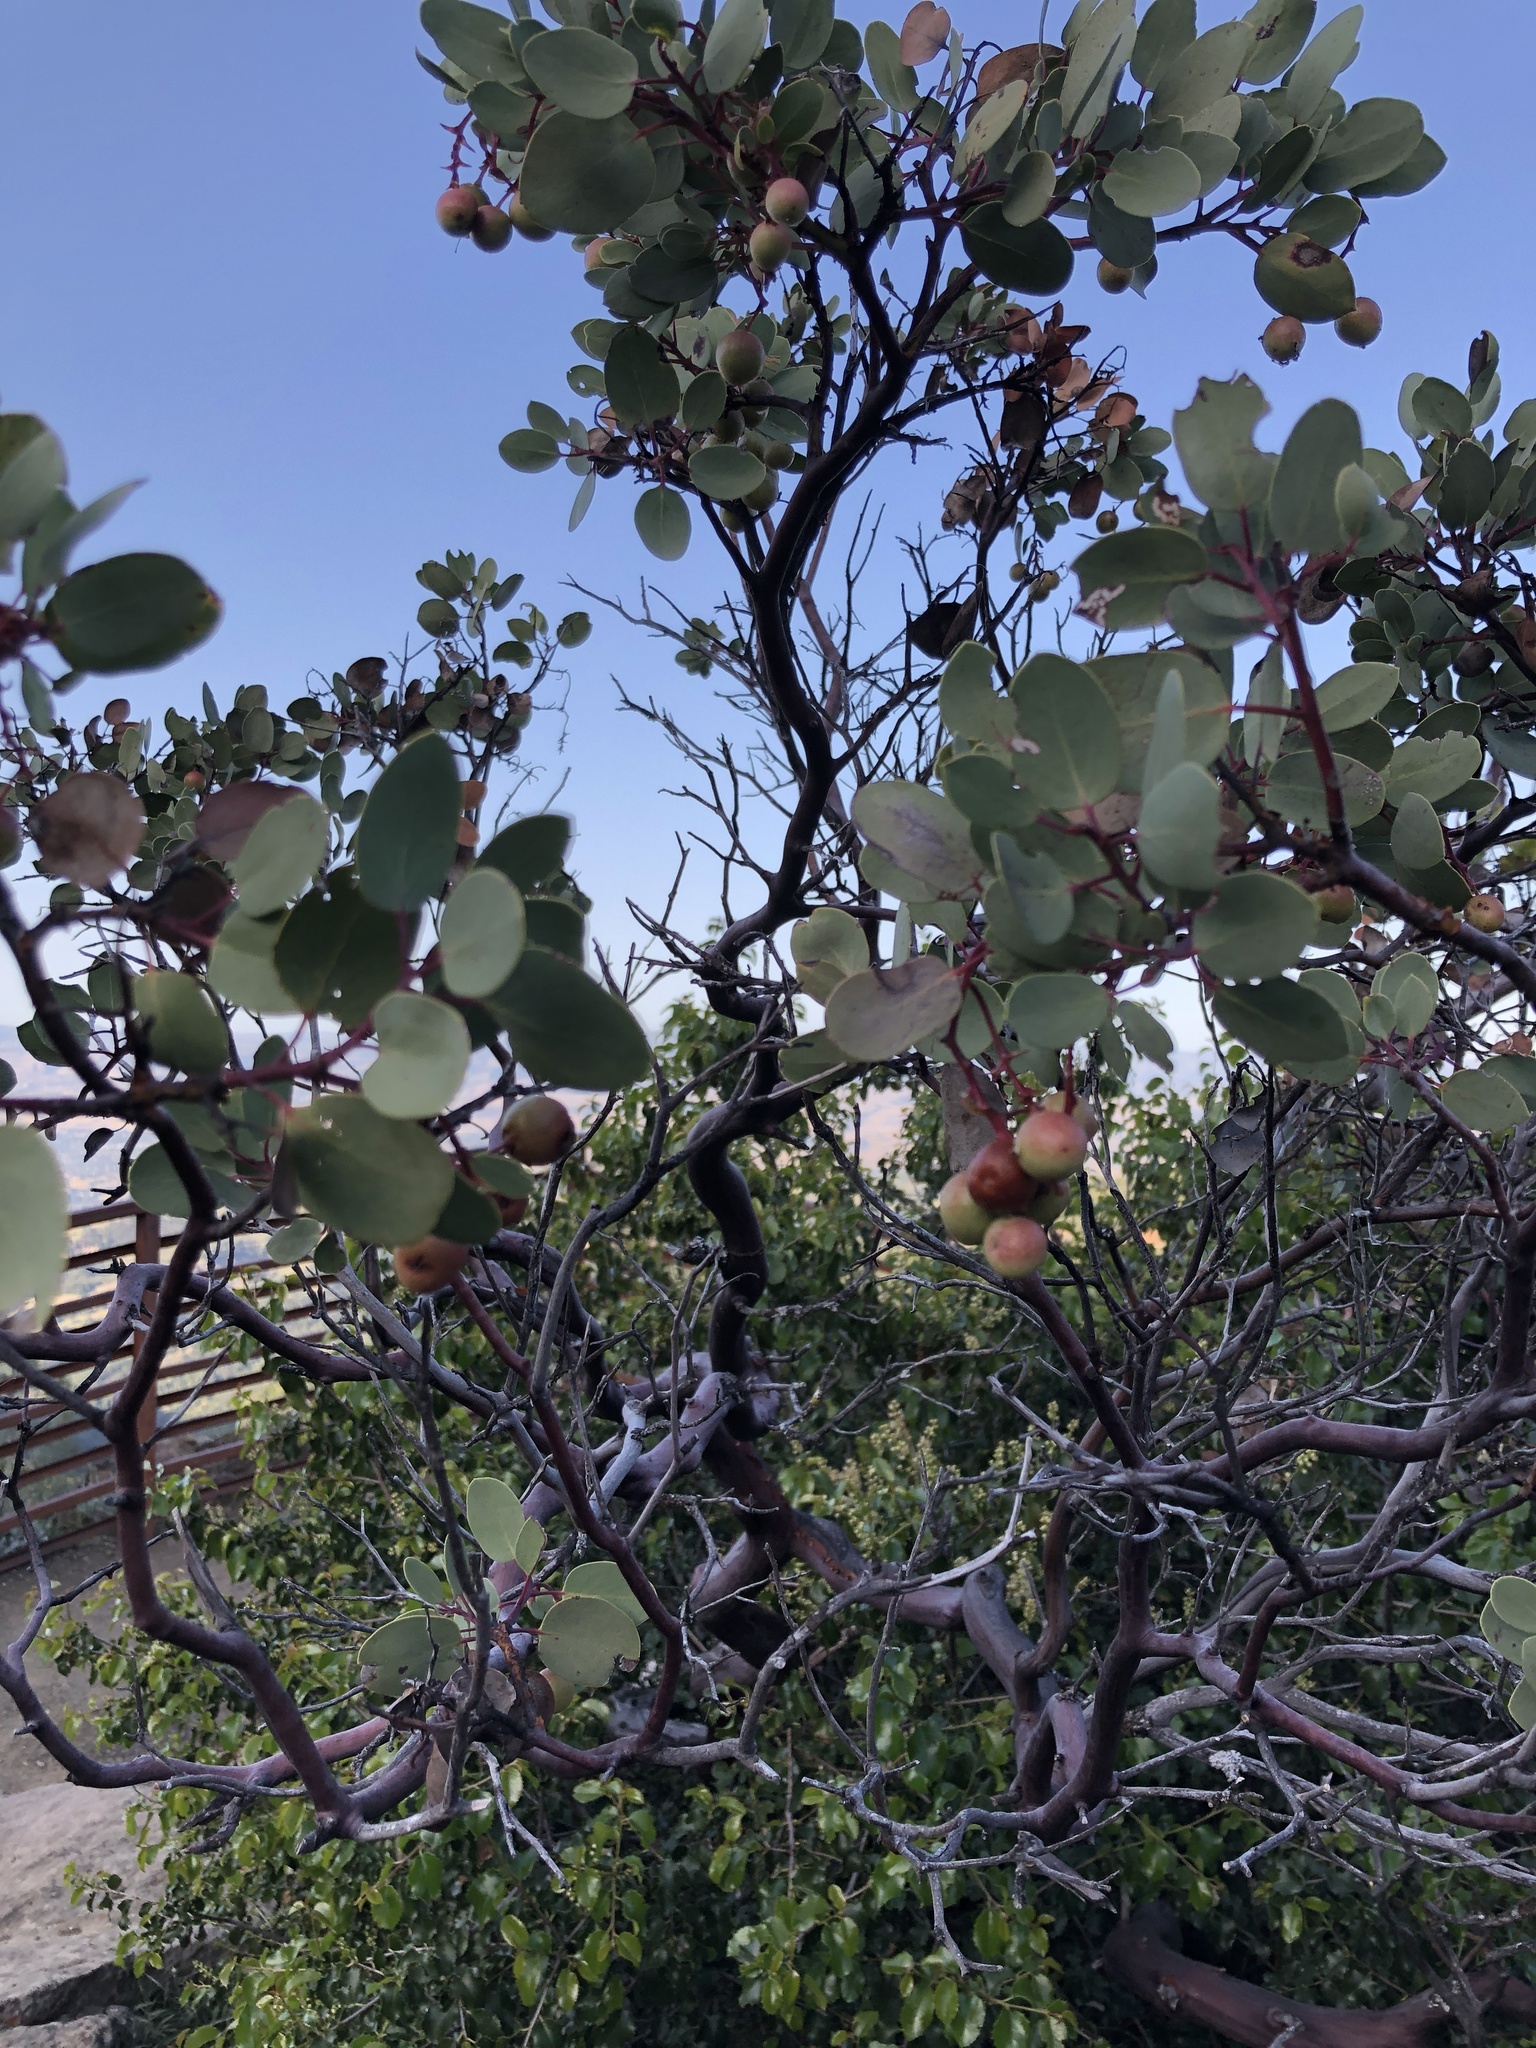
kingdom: Plantae
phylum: Tracheophyta
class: Magnoliopsida
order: Ericales
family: Ericaceae
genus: Arctostaphylos
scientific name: Arctostaphylos glauca
